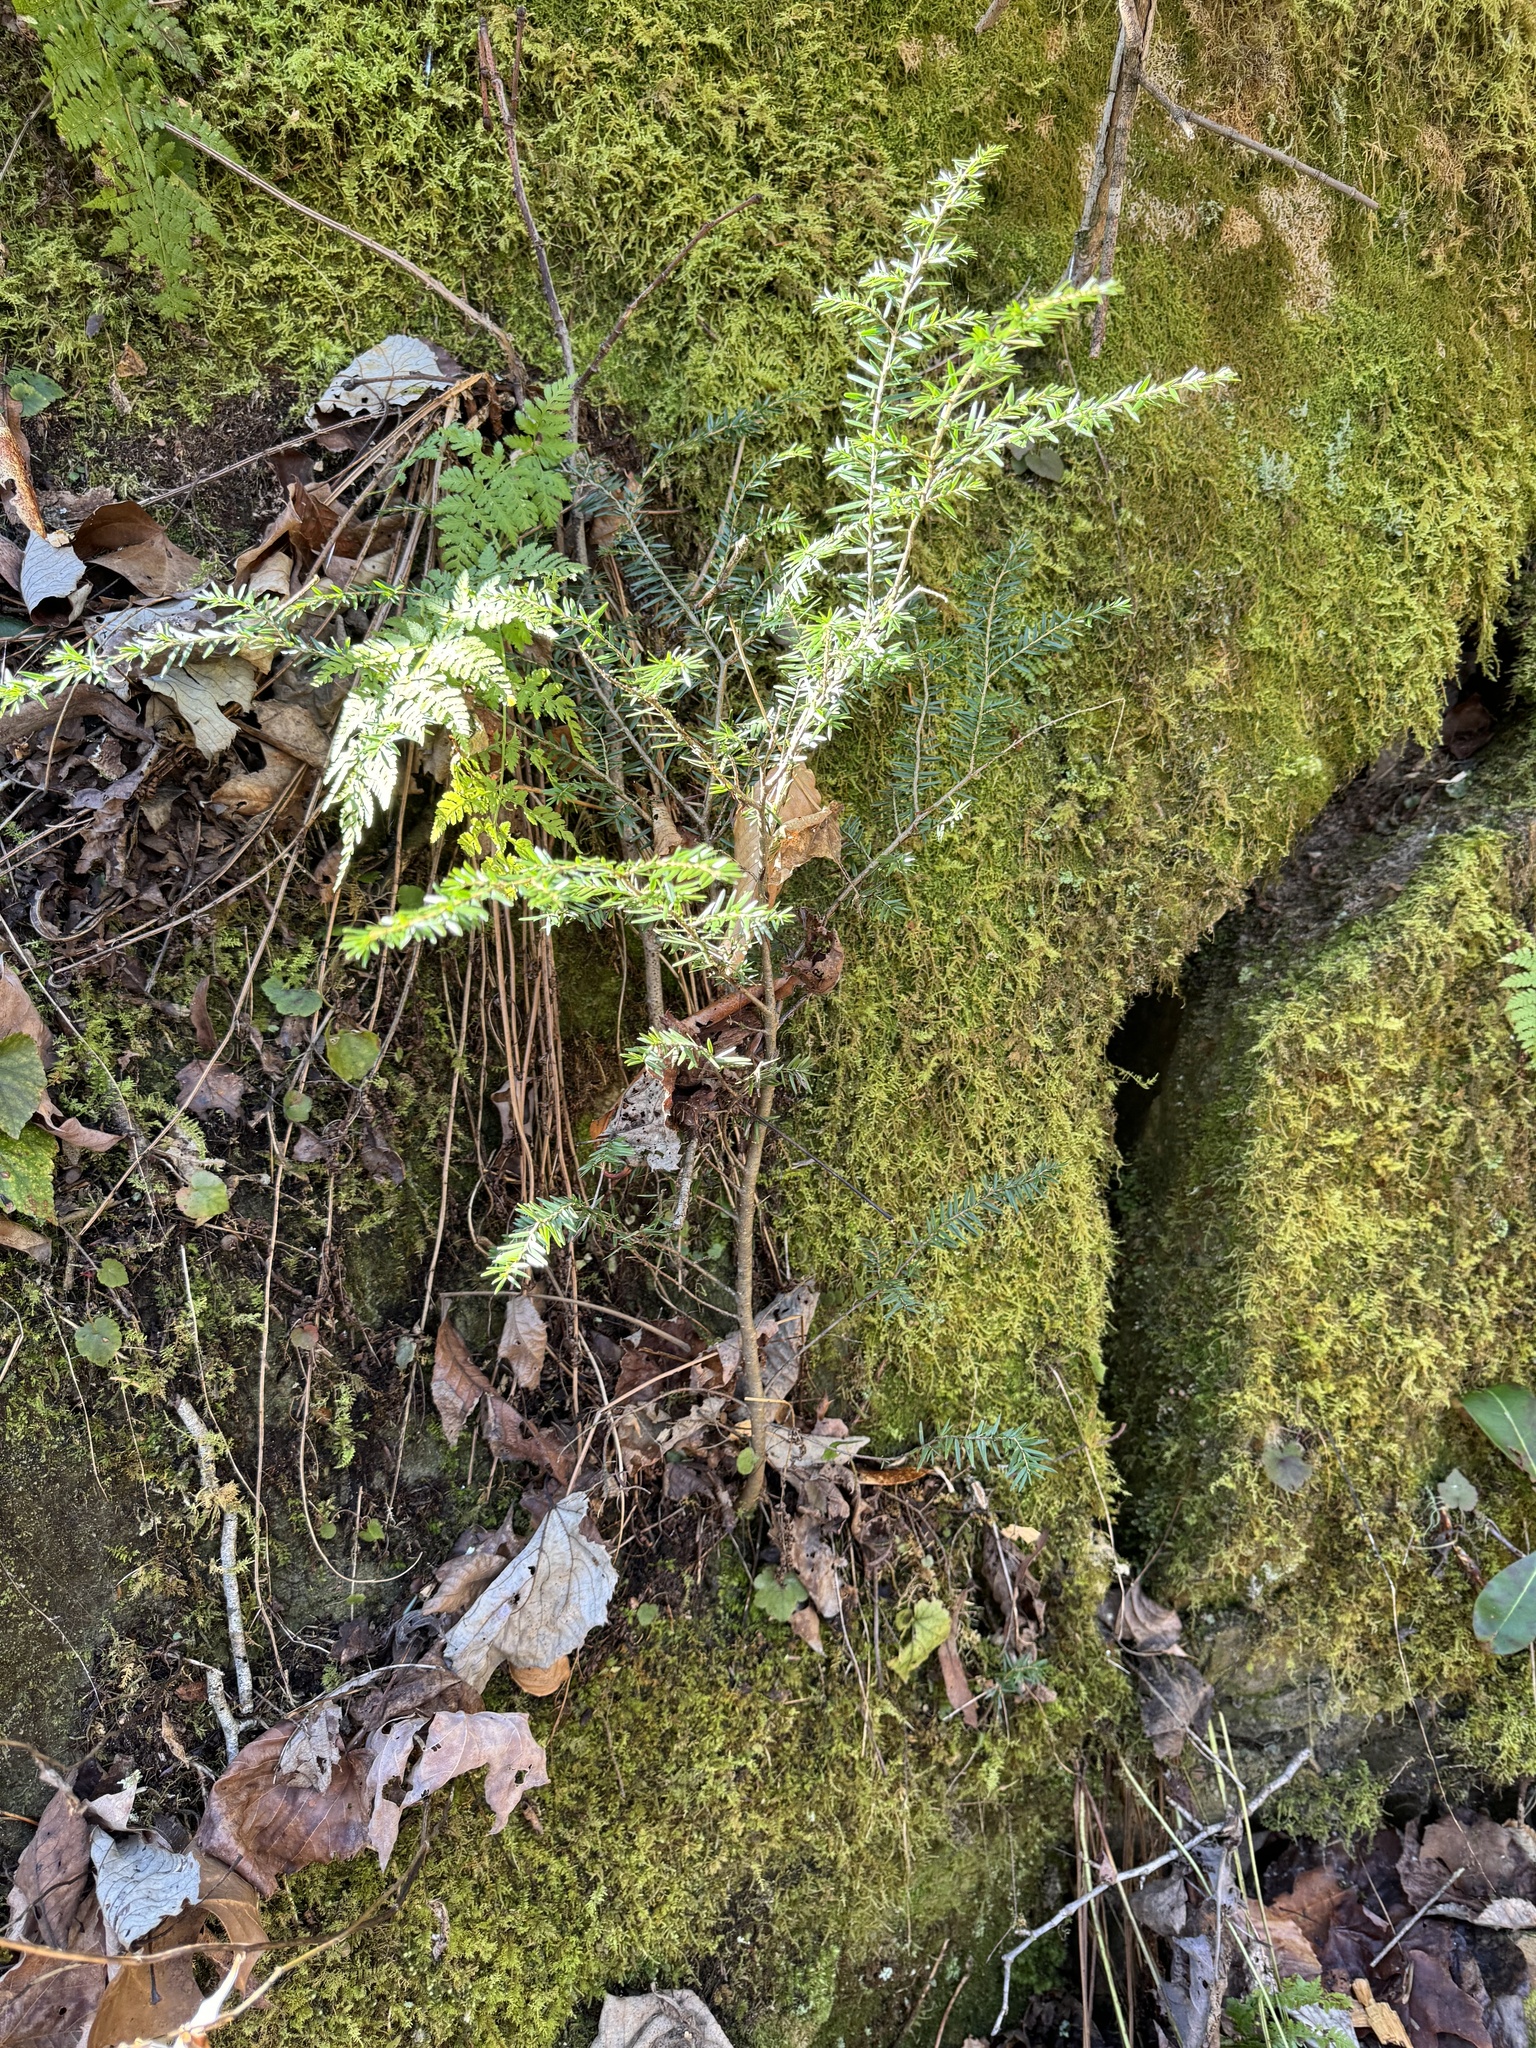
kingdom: Plantae
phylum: Tracheophyta
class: Pinopsida
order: Pinales
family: Pinaceae
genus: Tsuga
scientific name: Tsuga canadensis
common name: Eastern hemlock
